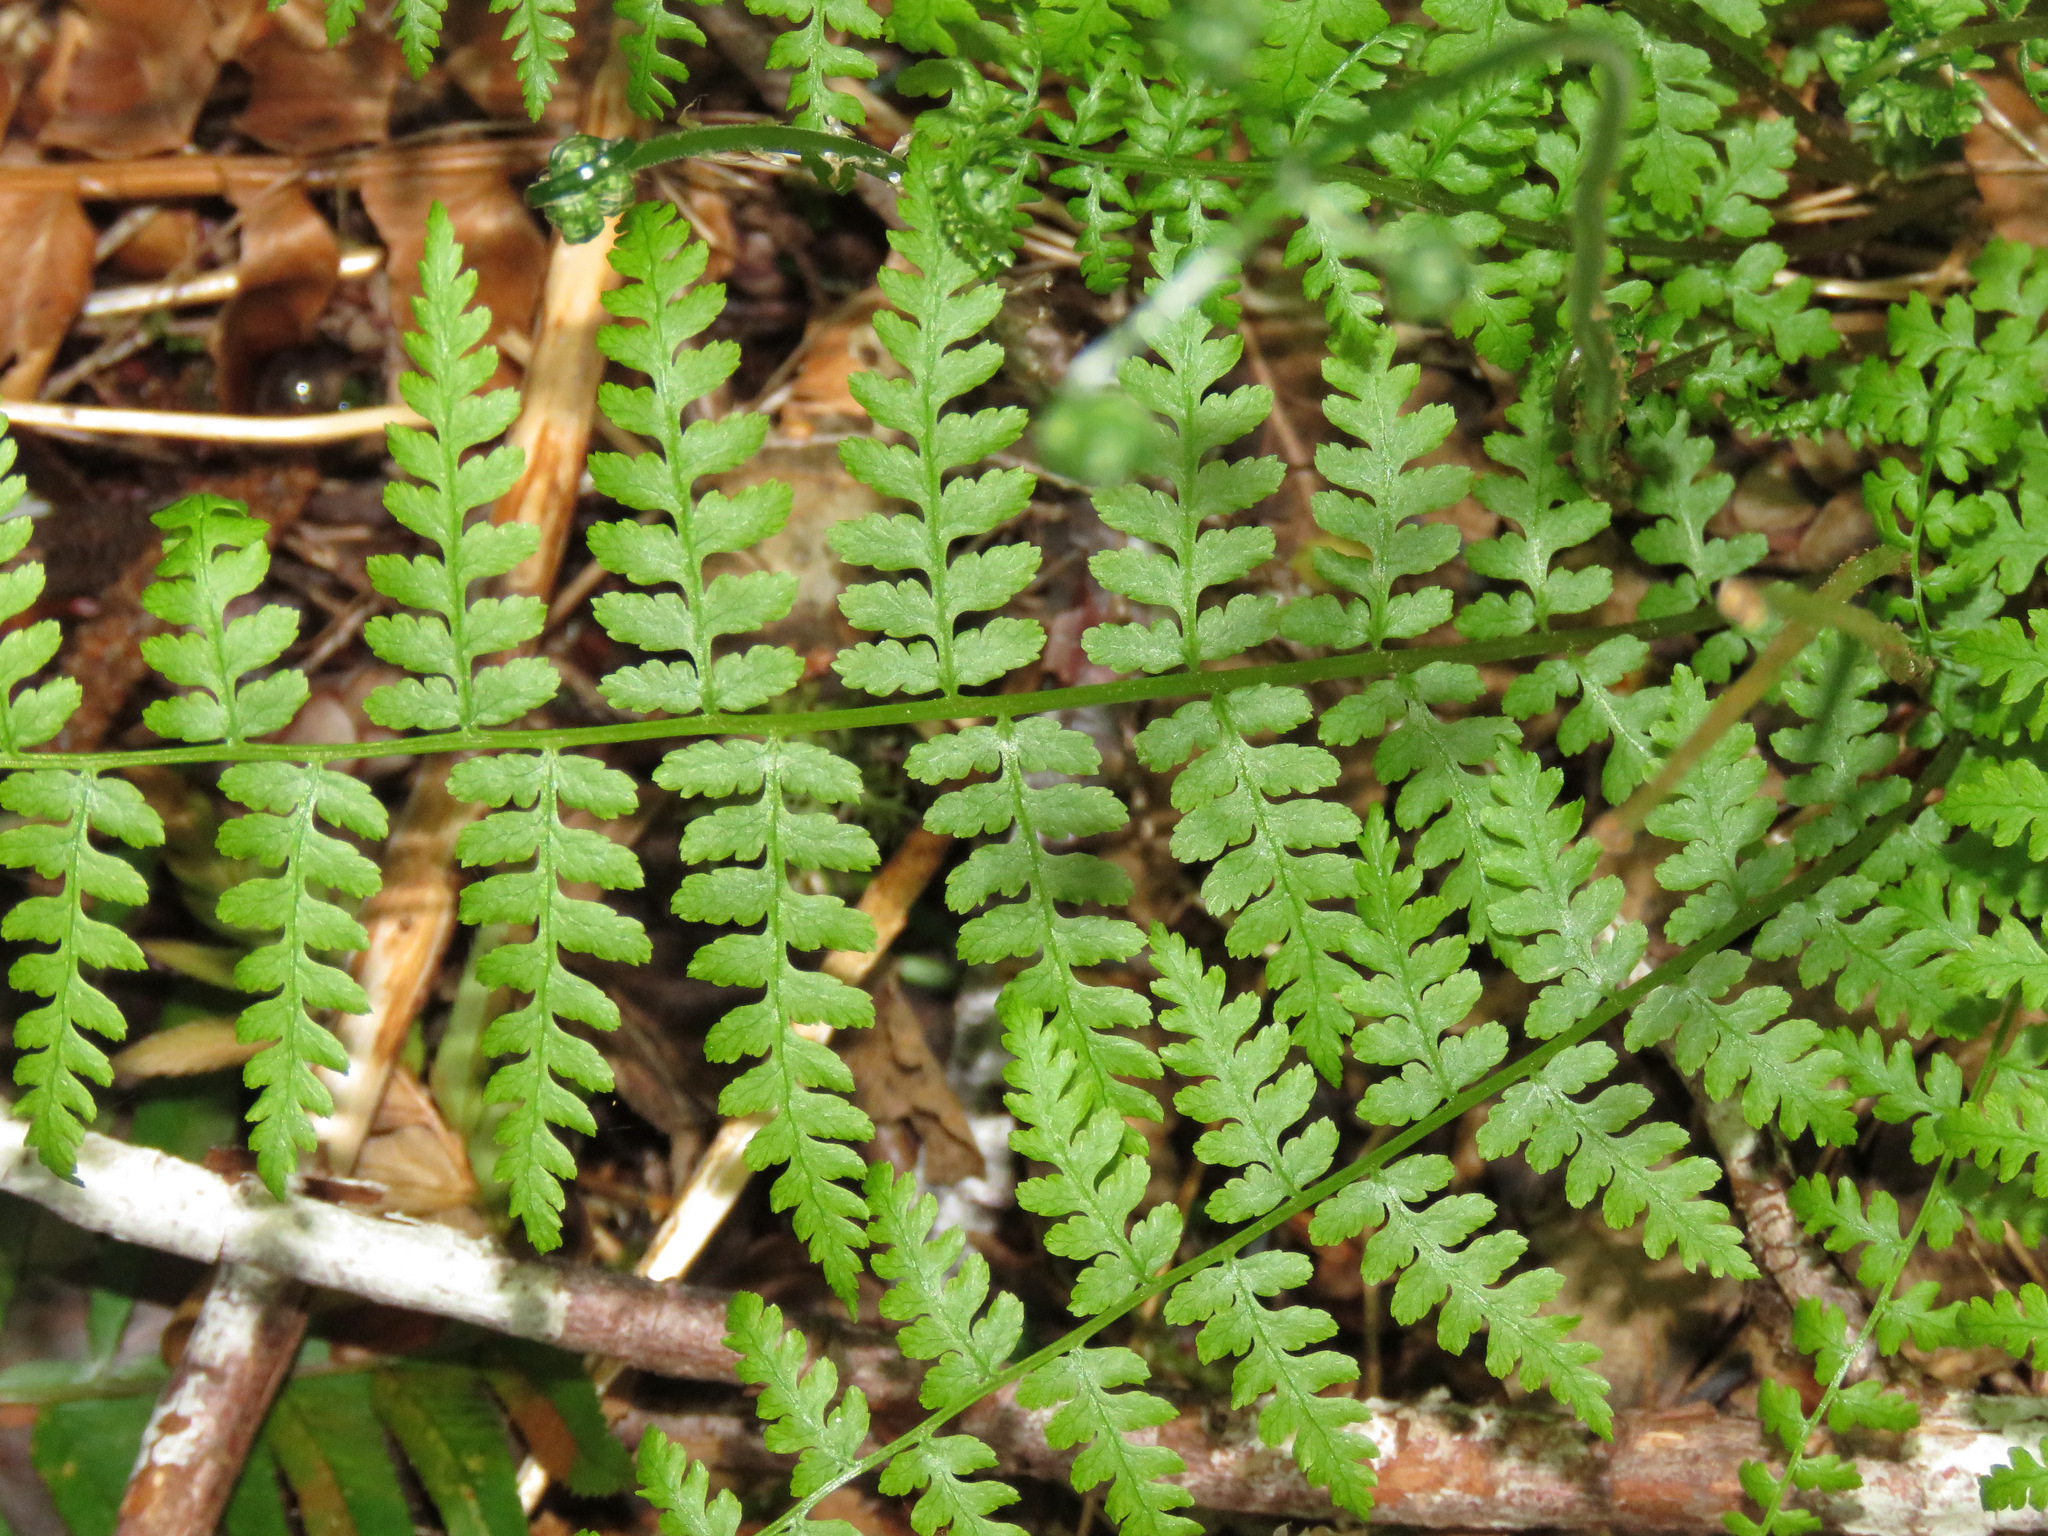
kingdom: Plantae
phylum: Tracheophyta
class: Polypodiopsida
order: Polypodiales
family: Athyriaceae
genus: Athyrium
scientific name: Athyrium filix-femina
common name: Lady fern
